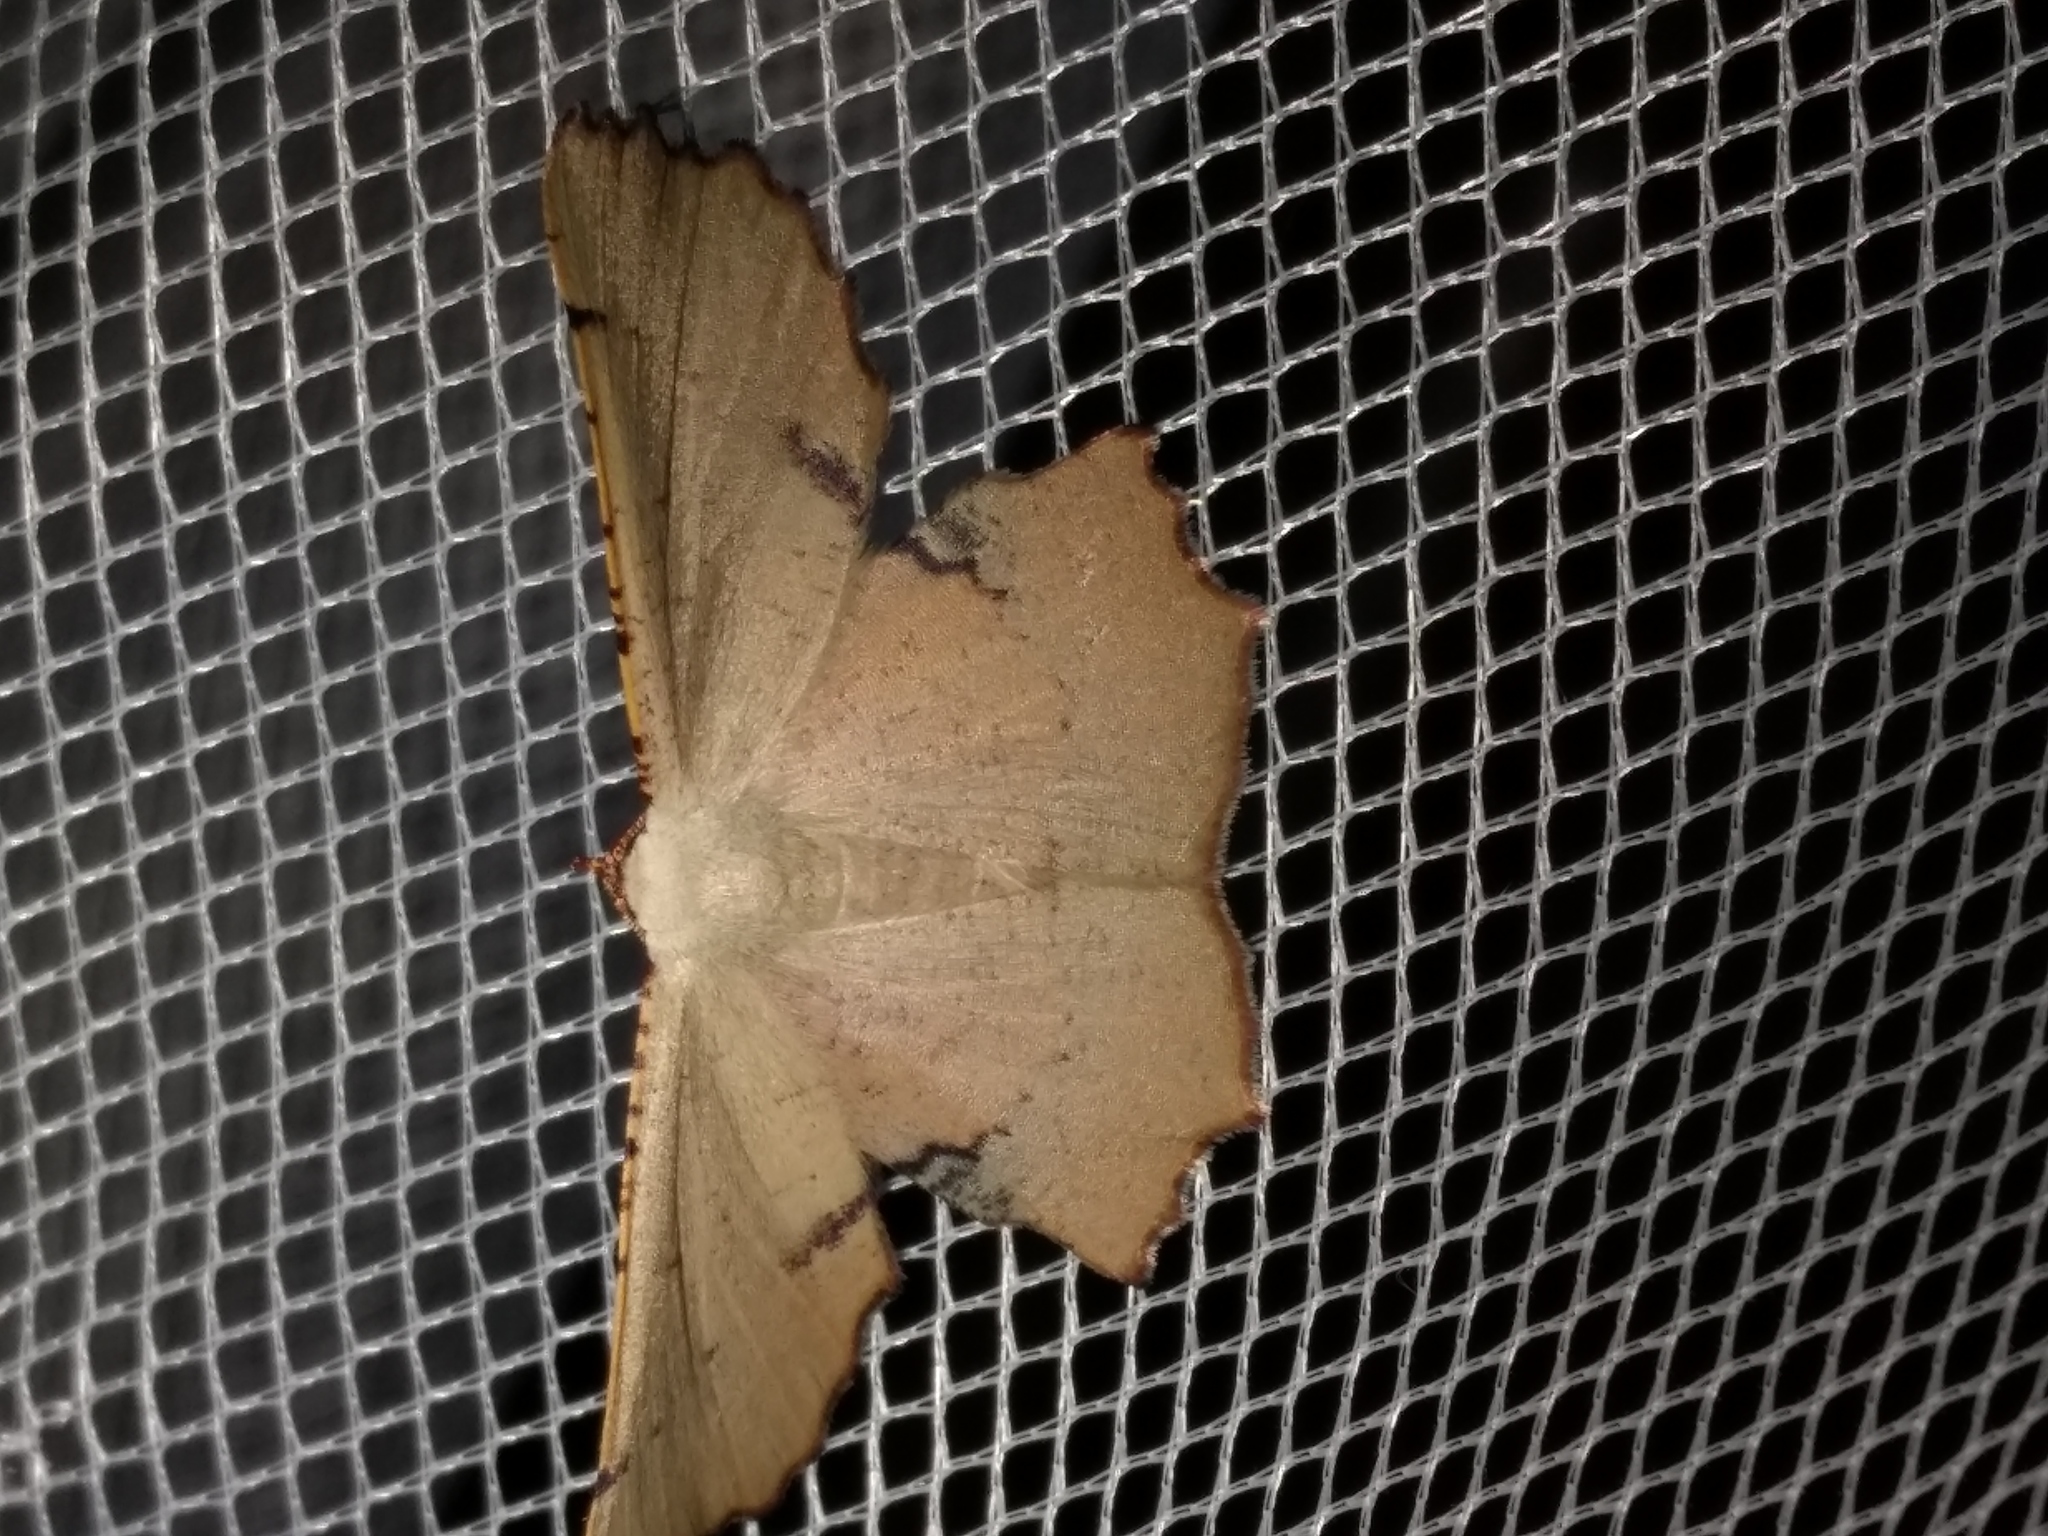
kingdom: Animalia
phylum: Arthropoda
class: Insecta
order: Lepidoptera
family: Geometridae
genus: Cernia
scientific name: Cernia amyclaria
